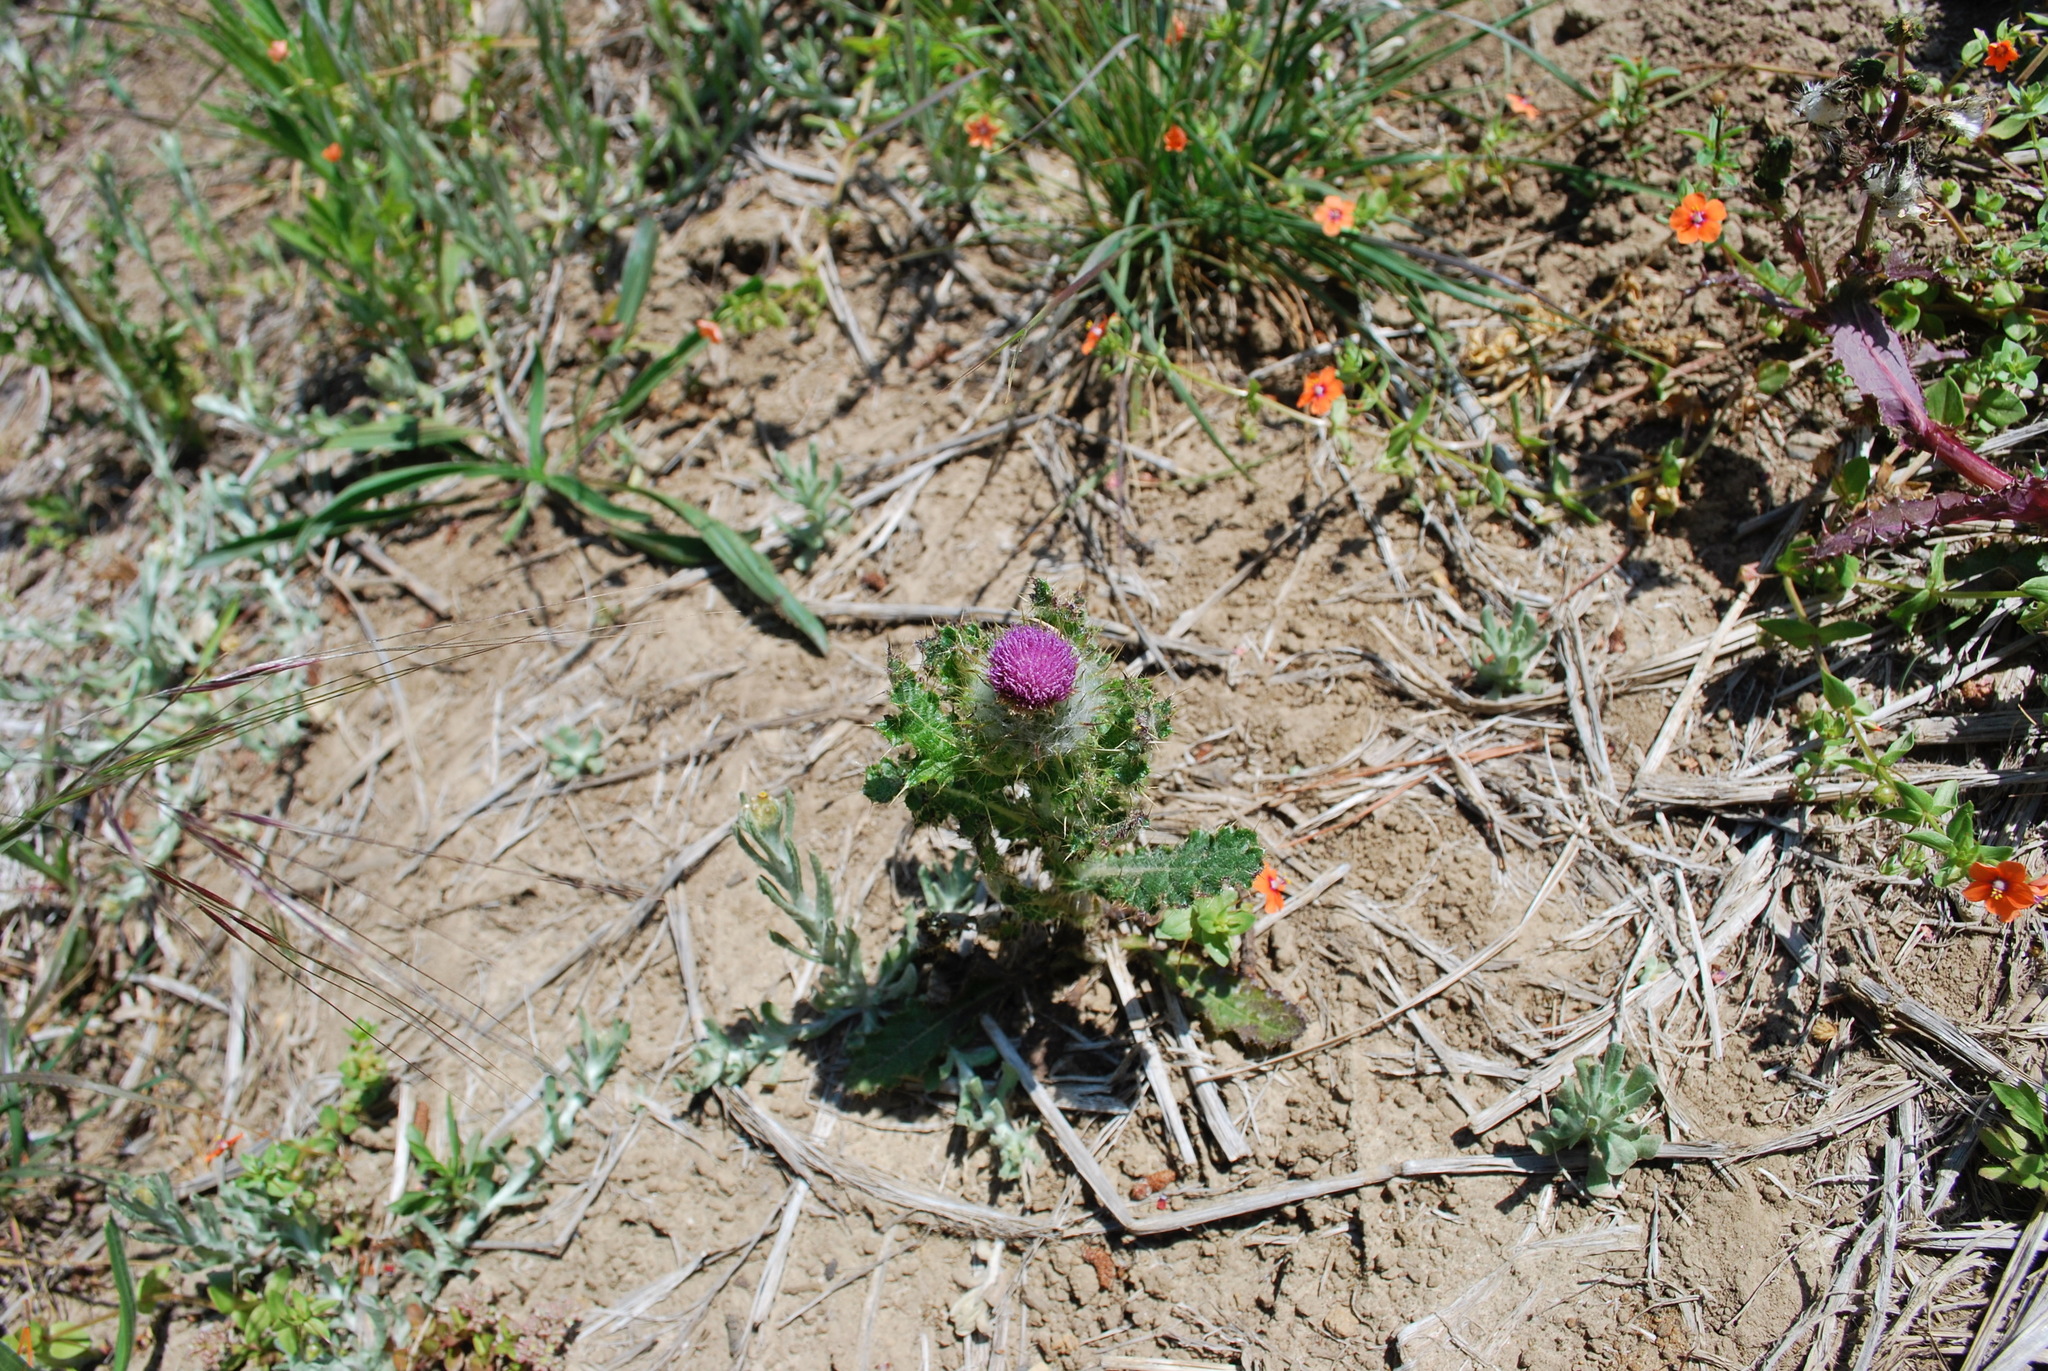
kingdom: Plantae
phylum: Tracheophyta
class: Magnoliopsida
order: Asterales
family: Asteraceae
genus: Cirsium
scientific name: Cirsium brevistylum
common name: Indian thistle
